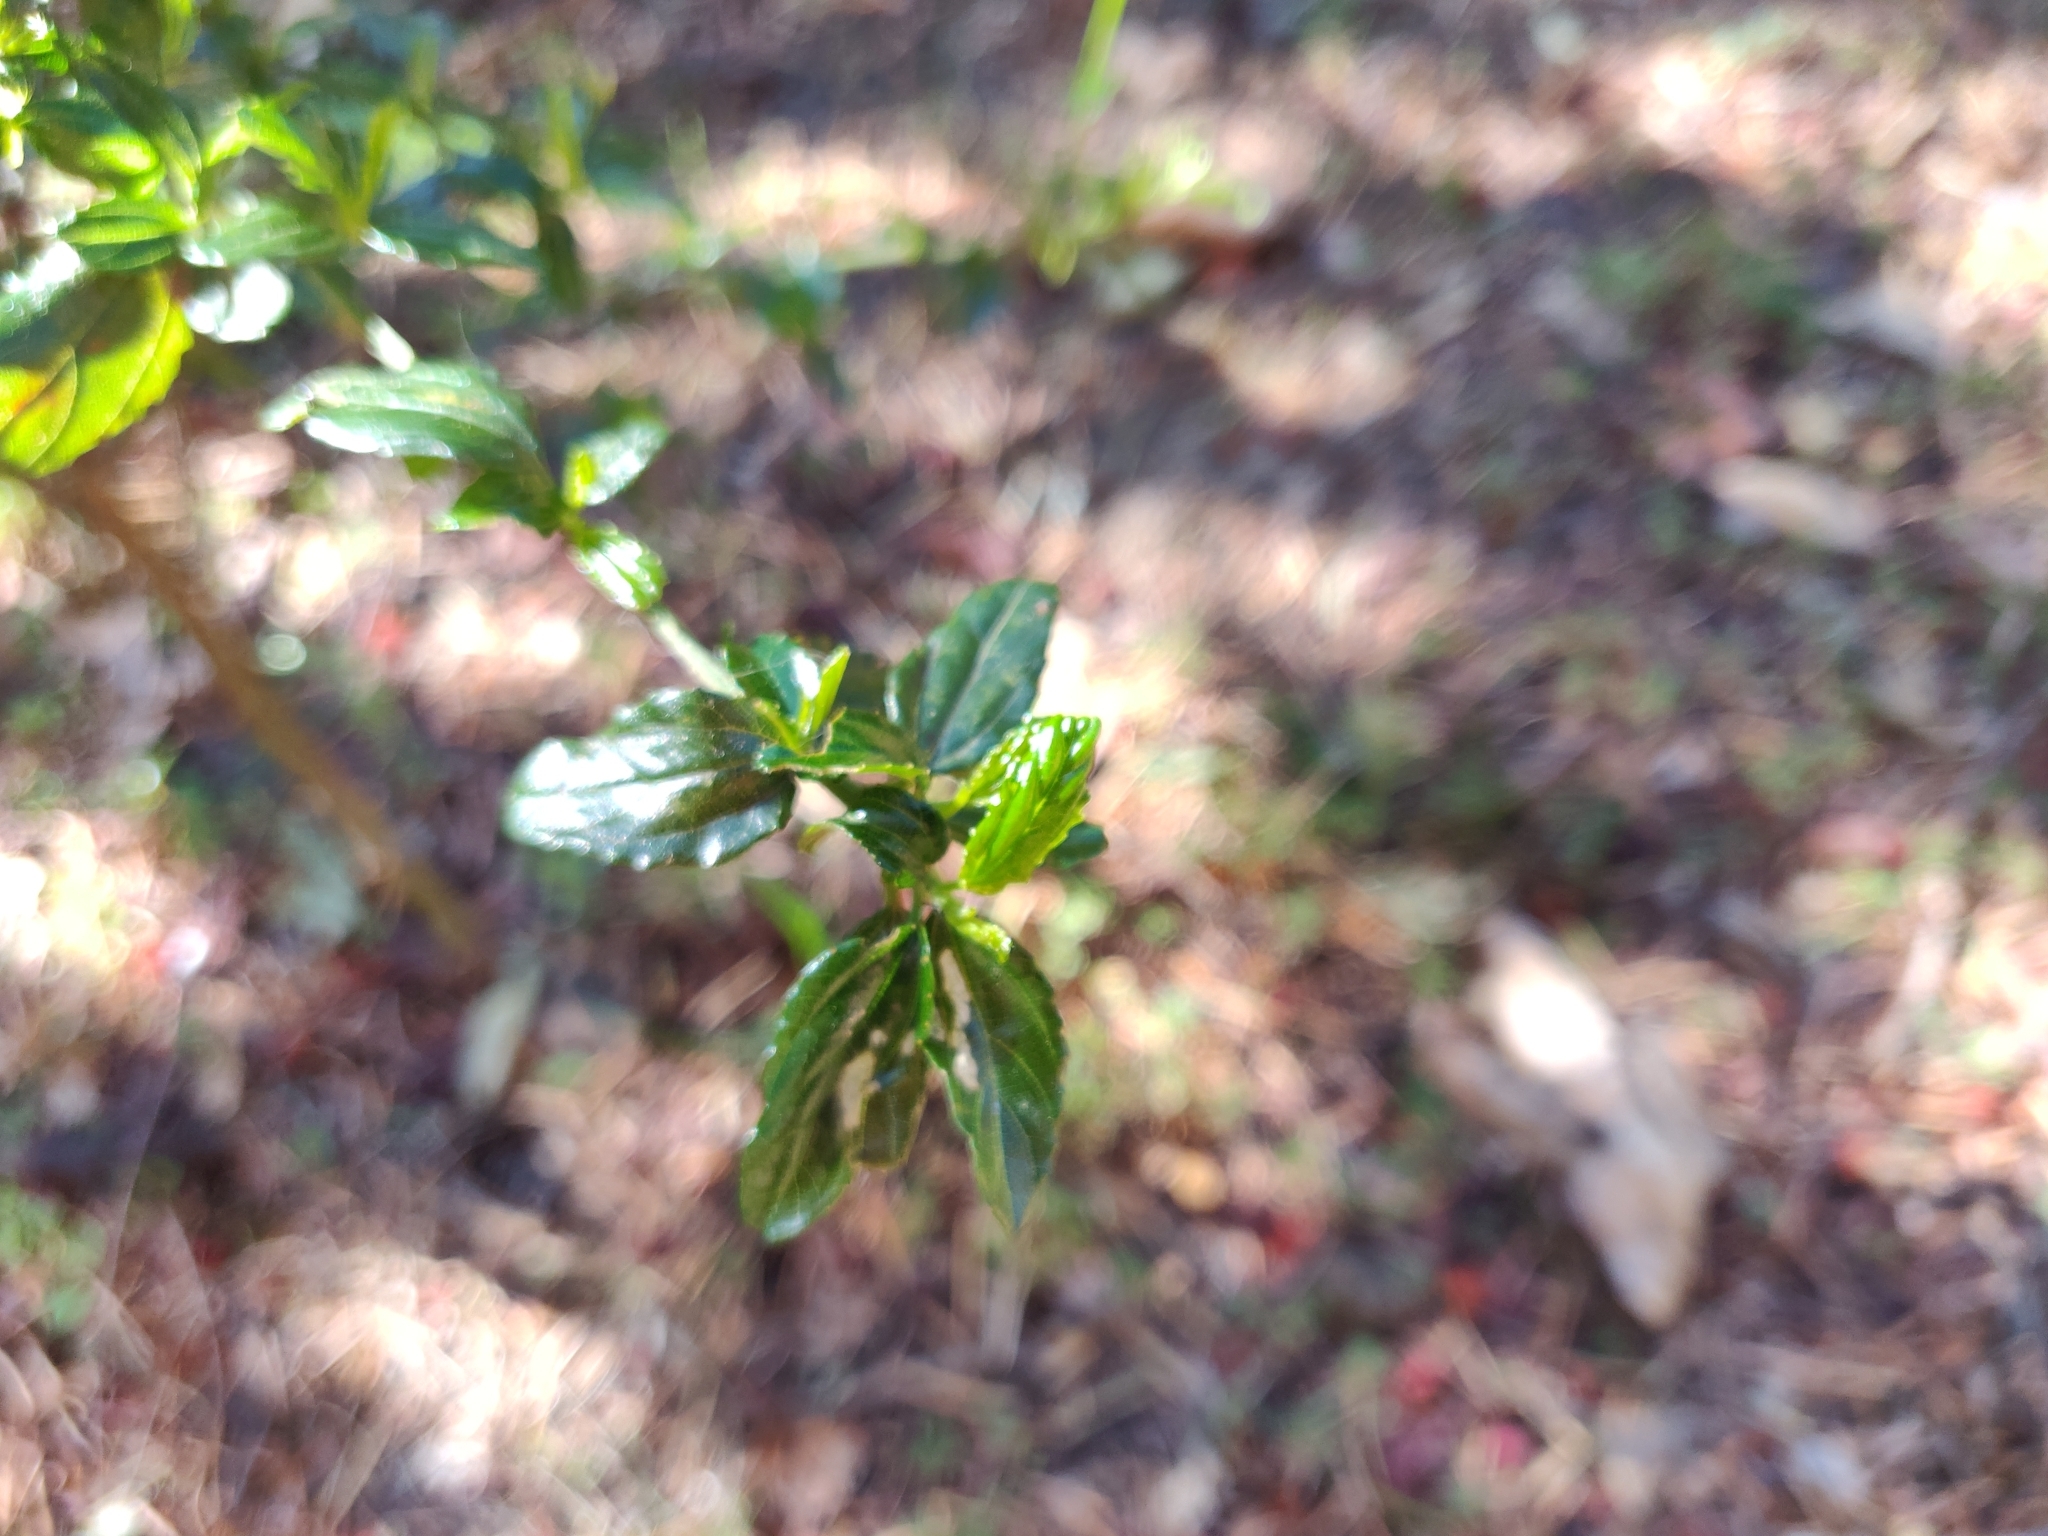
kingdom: Plantae
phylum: Tracheophyta
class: Magnoliopsida
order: Rosales
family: Rhamnaceae
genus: Ceanothus
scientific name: Ceanothus thyrsiflorus
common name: California-lilac
